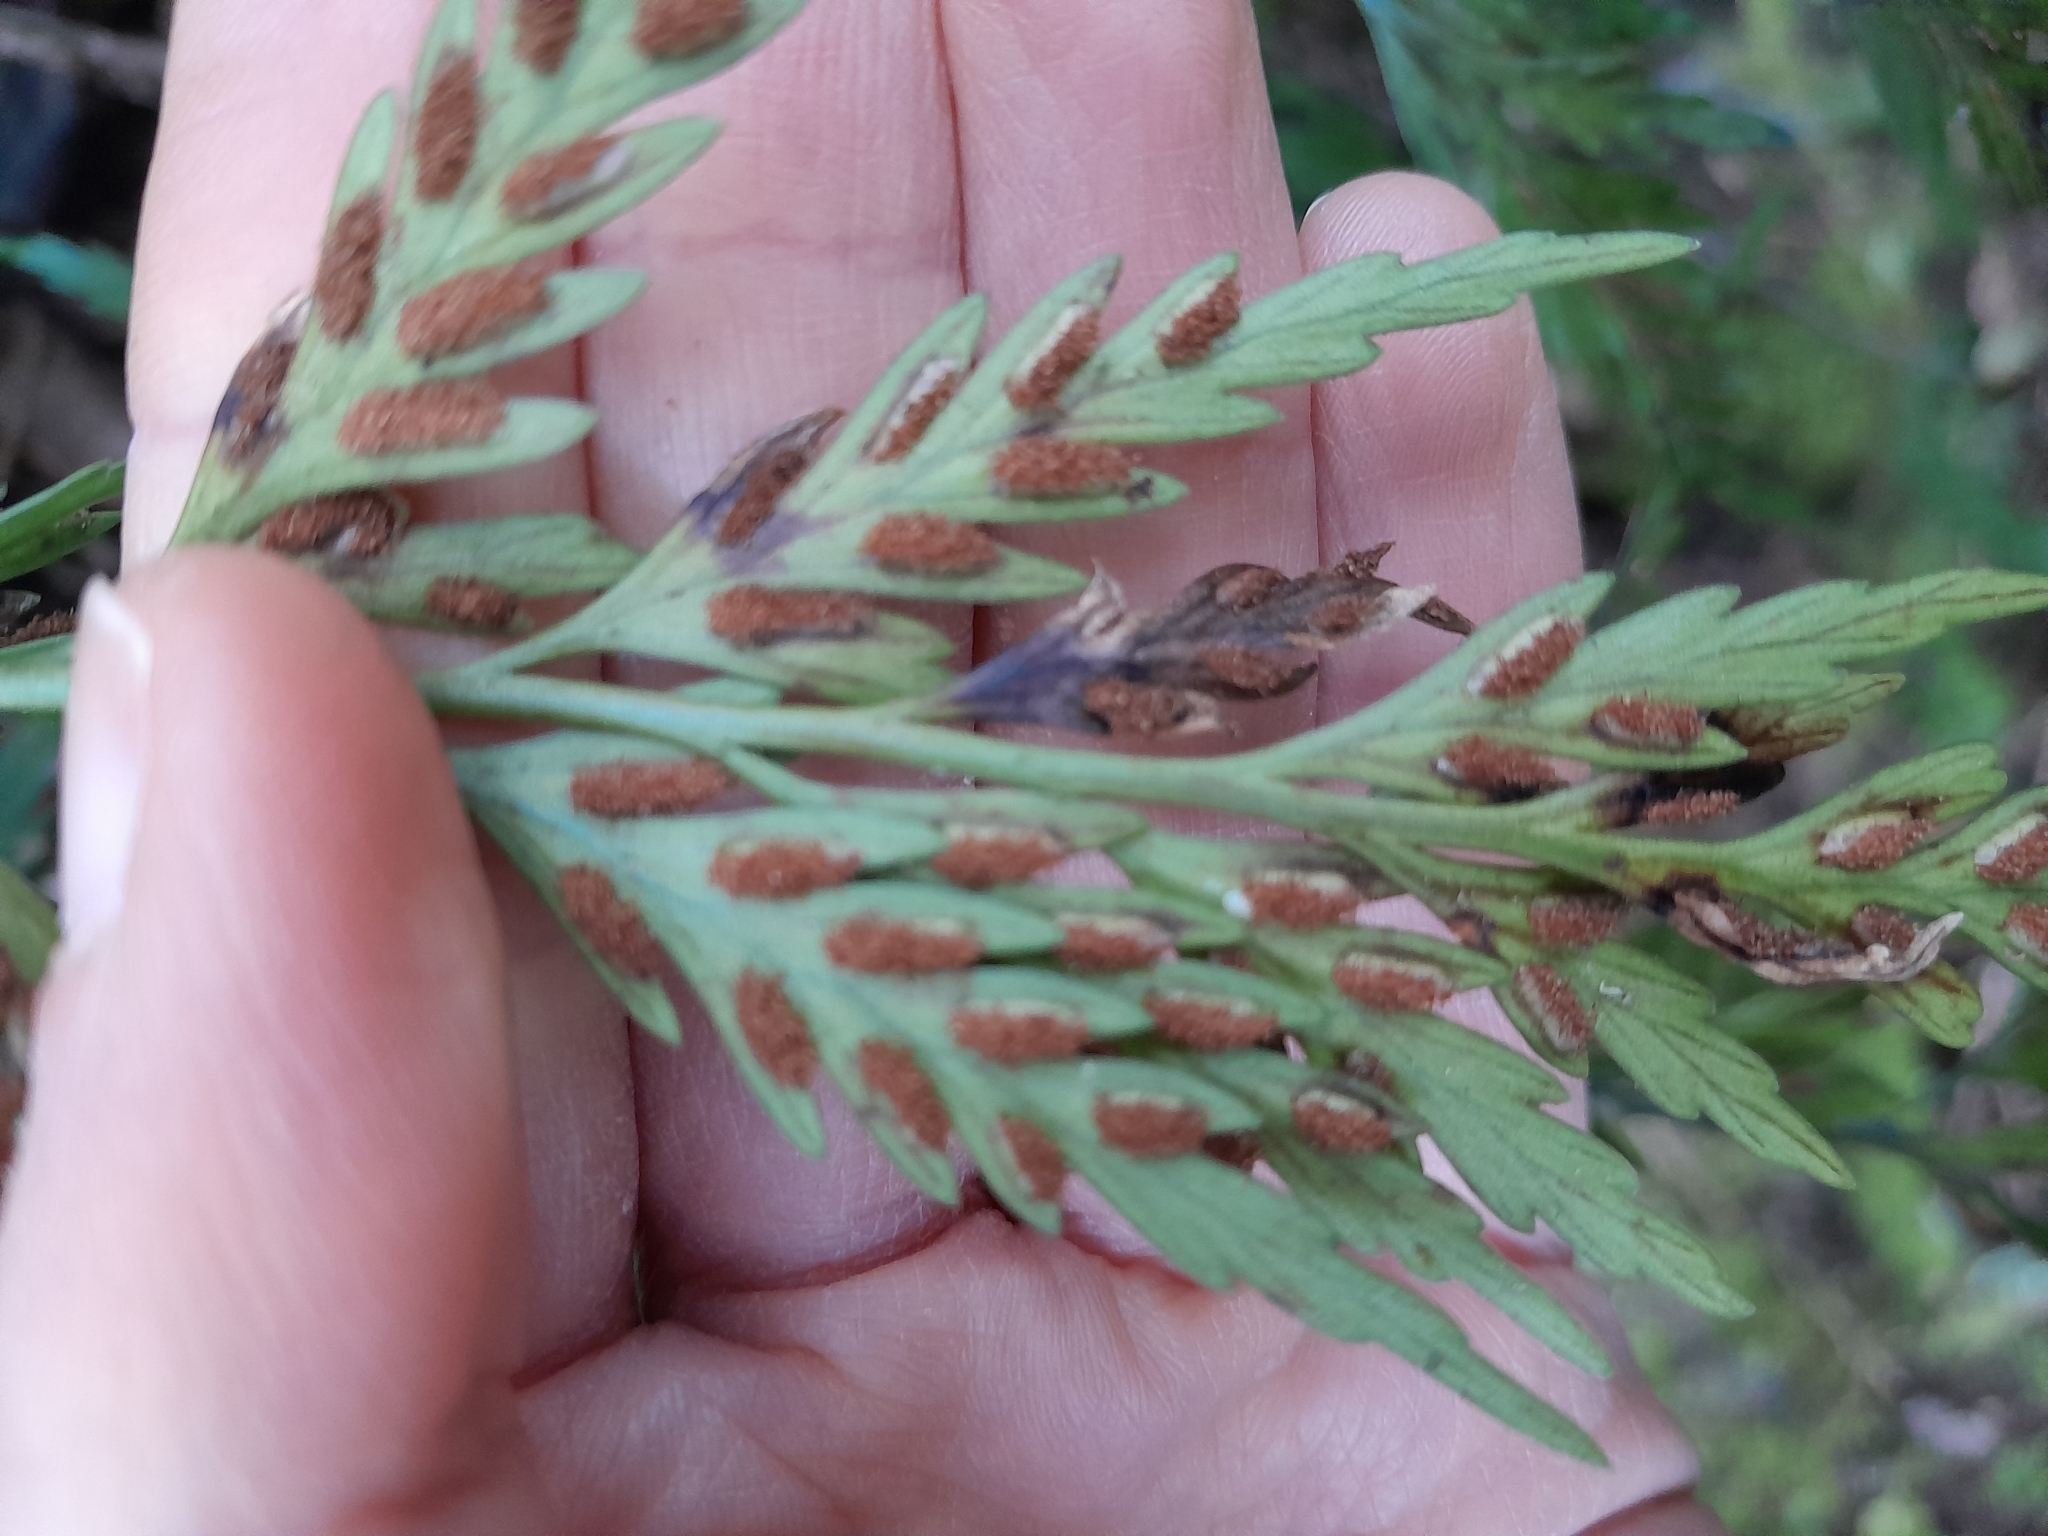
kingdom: Plantae
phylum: Tracheophyta
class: Polypodiopsida
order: Polypodiales
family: Aspleniaceae
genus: Asplenium
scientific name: Asplenium appendiculatum
